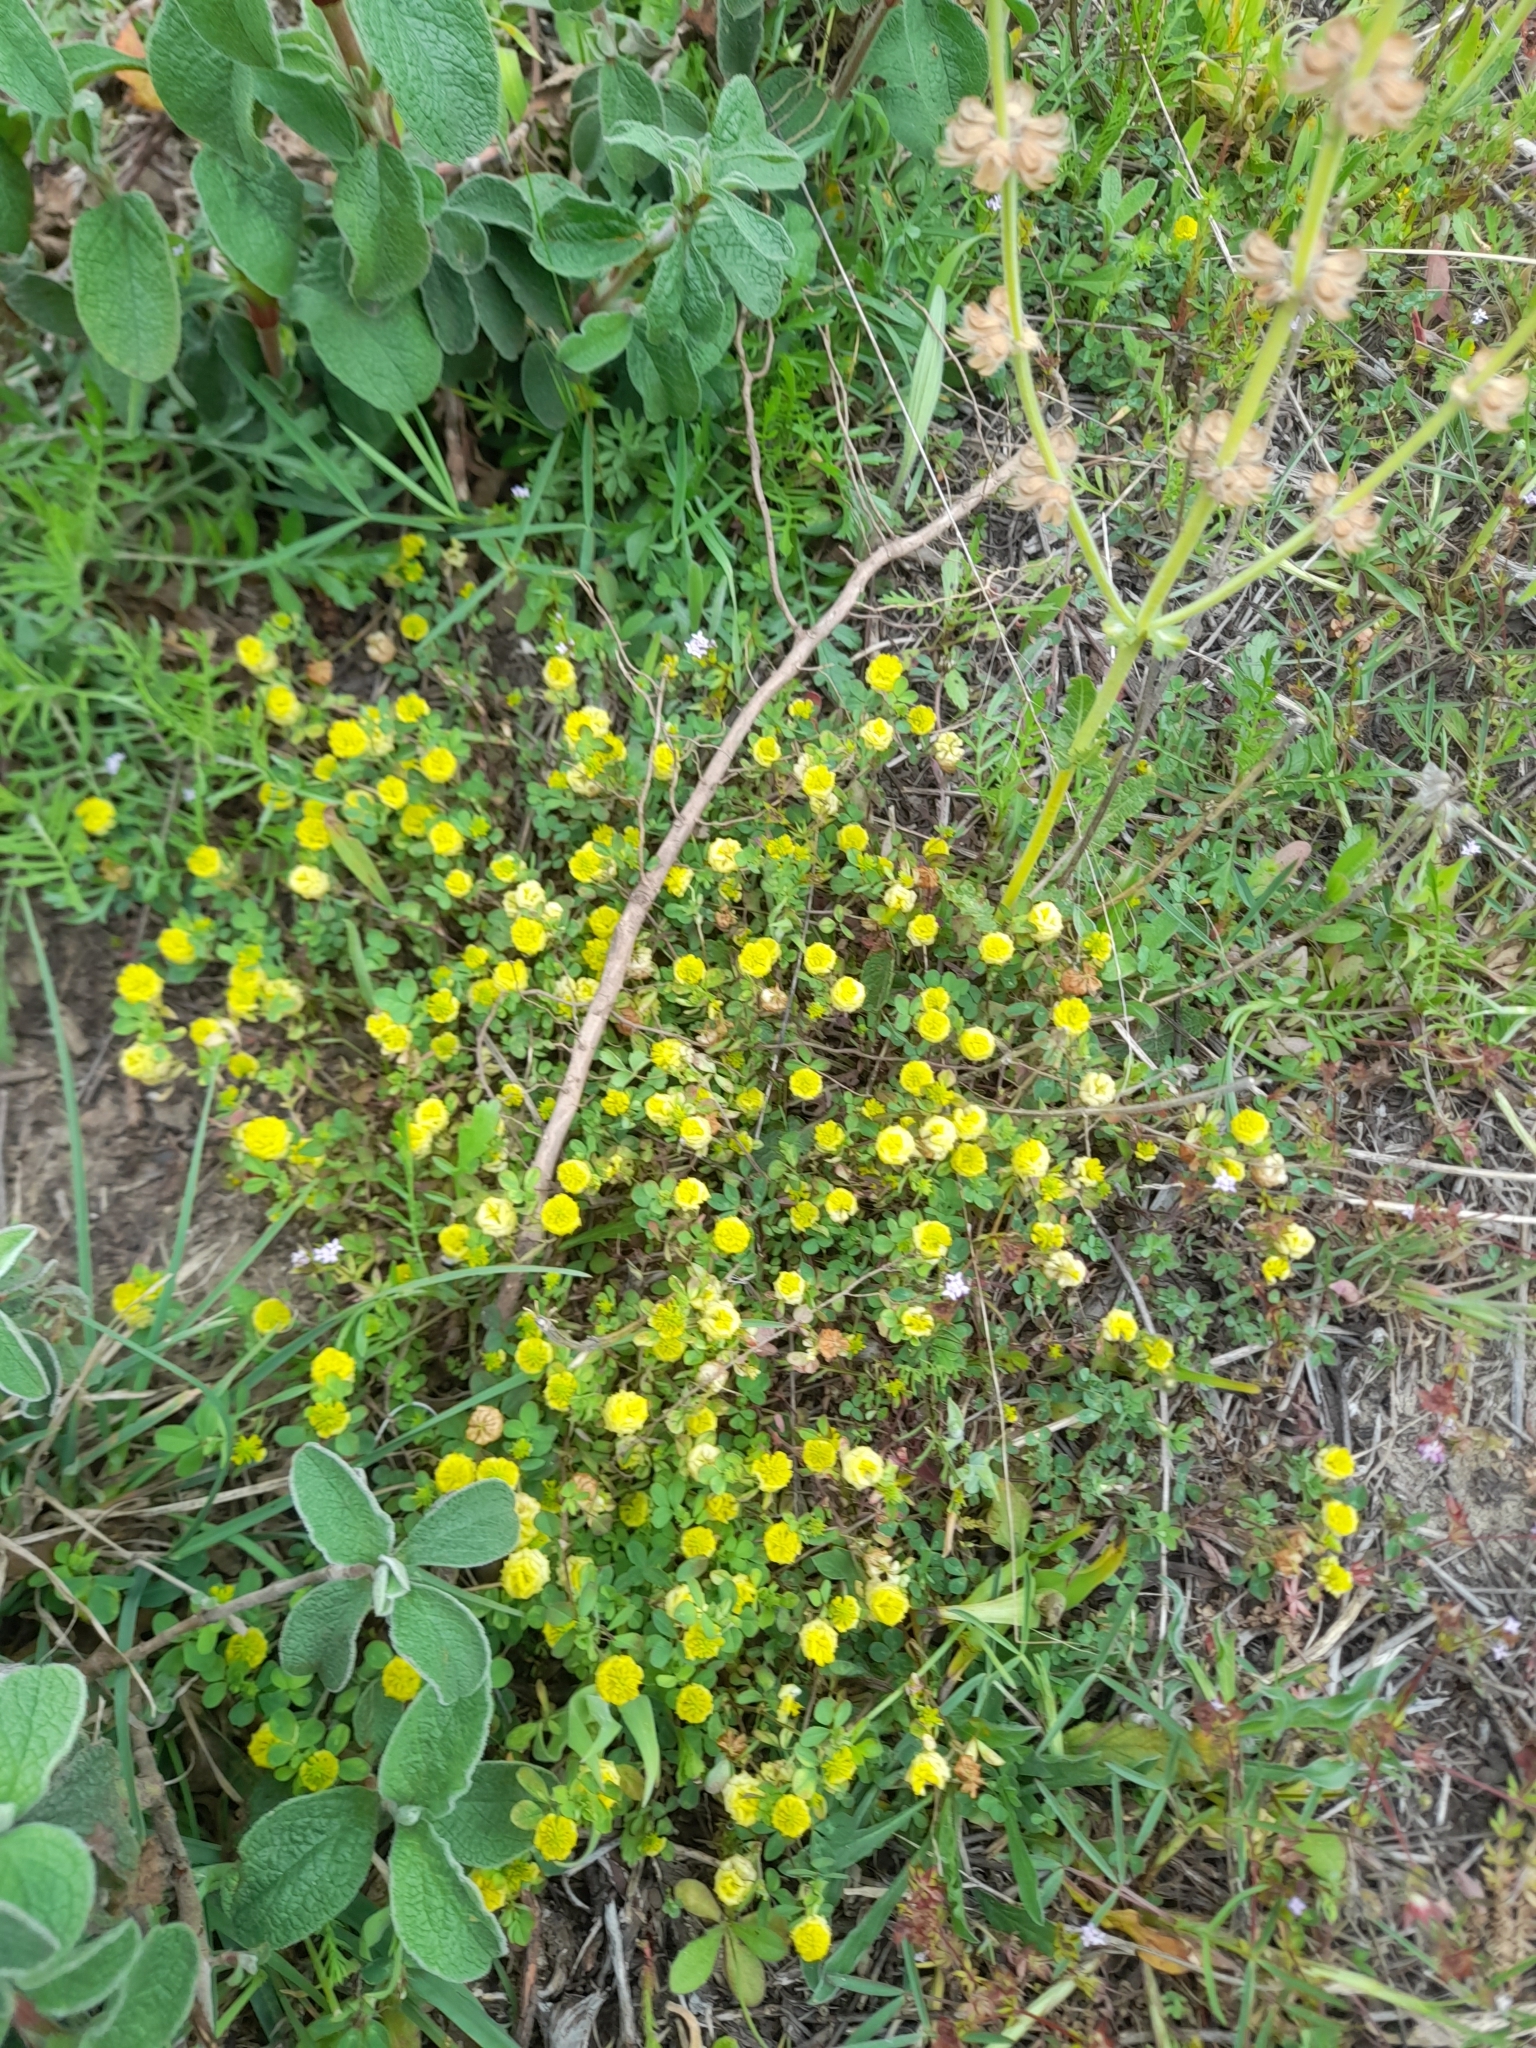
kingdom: Plantae
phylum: Tracheophyta
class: Magnoliopsida
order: Fabales
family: Fabaceae
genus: Trifolium
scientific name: Trifolium campestre
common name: Field clover
